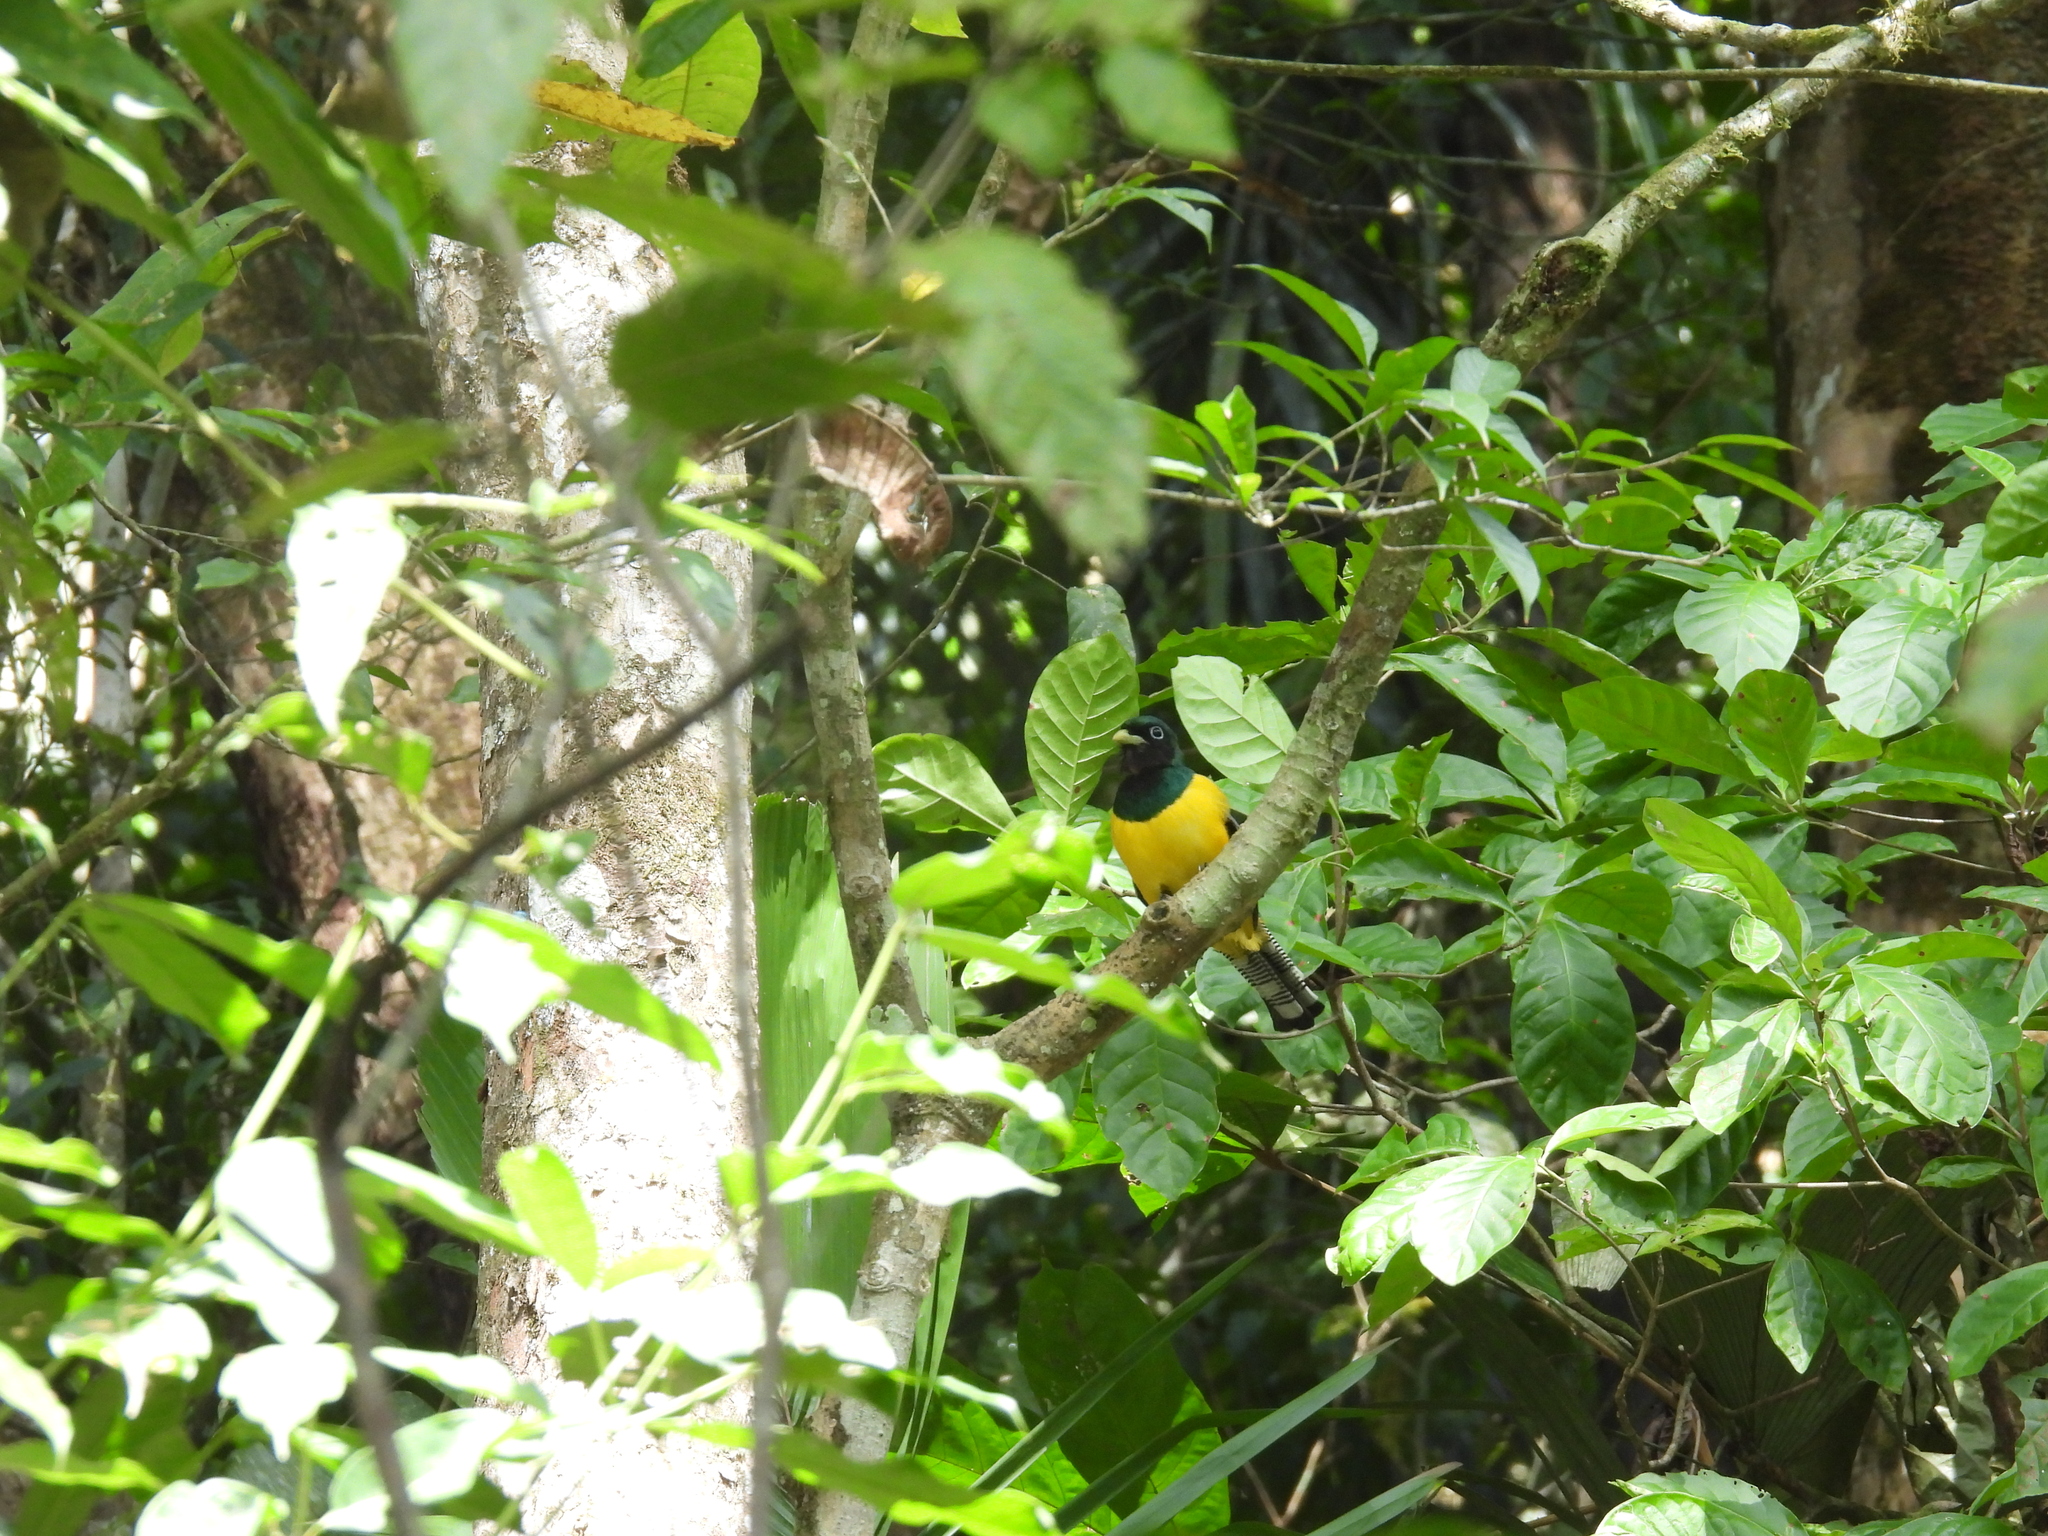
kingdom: Animalia
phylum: Chordata
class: Aves
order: Trogoniformes
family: Trogonidae
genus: Trogon
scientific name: Trogon rufus
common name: Black-throated trogon
